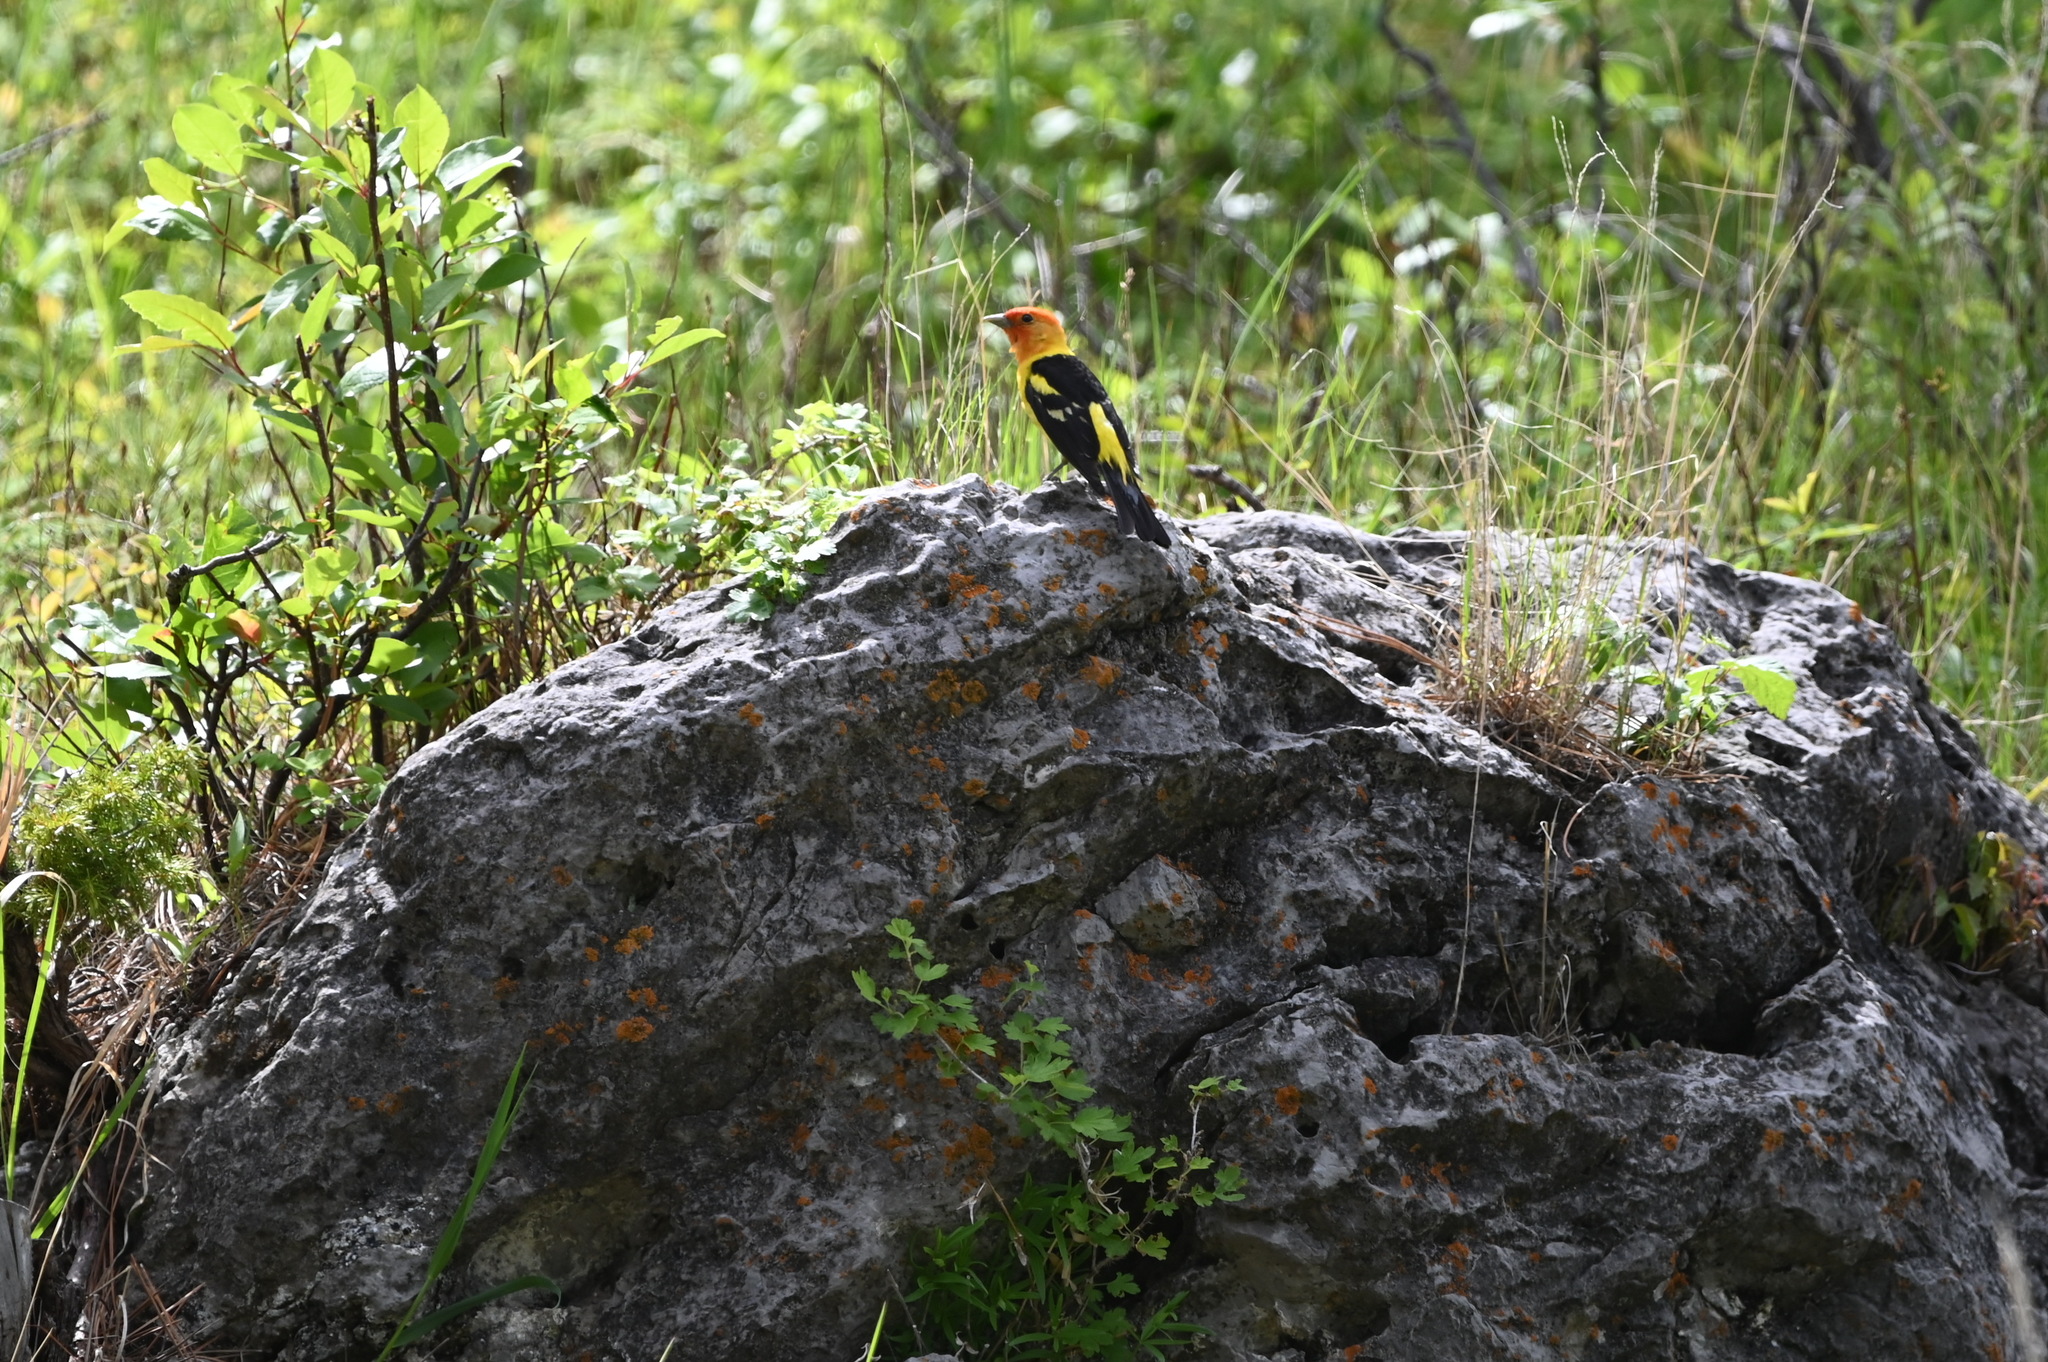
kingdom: Animalia
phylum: Chordata
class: Aves
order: Passeriformes
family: Cardinalidae
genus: Piranga
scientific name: Piranga ludoviciana
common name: Western tanager
